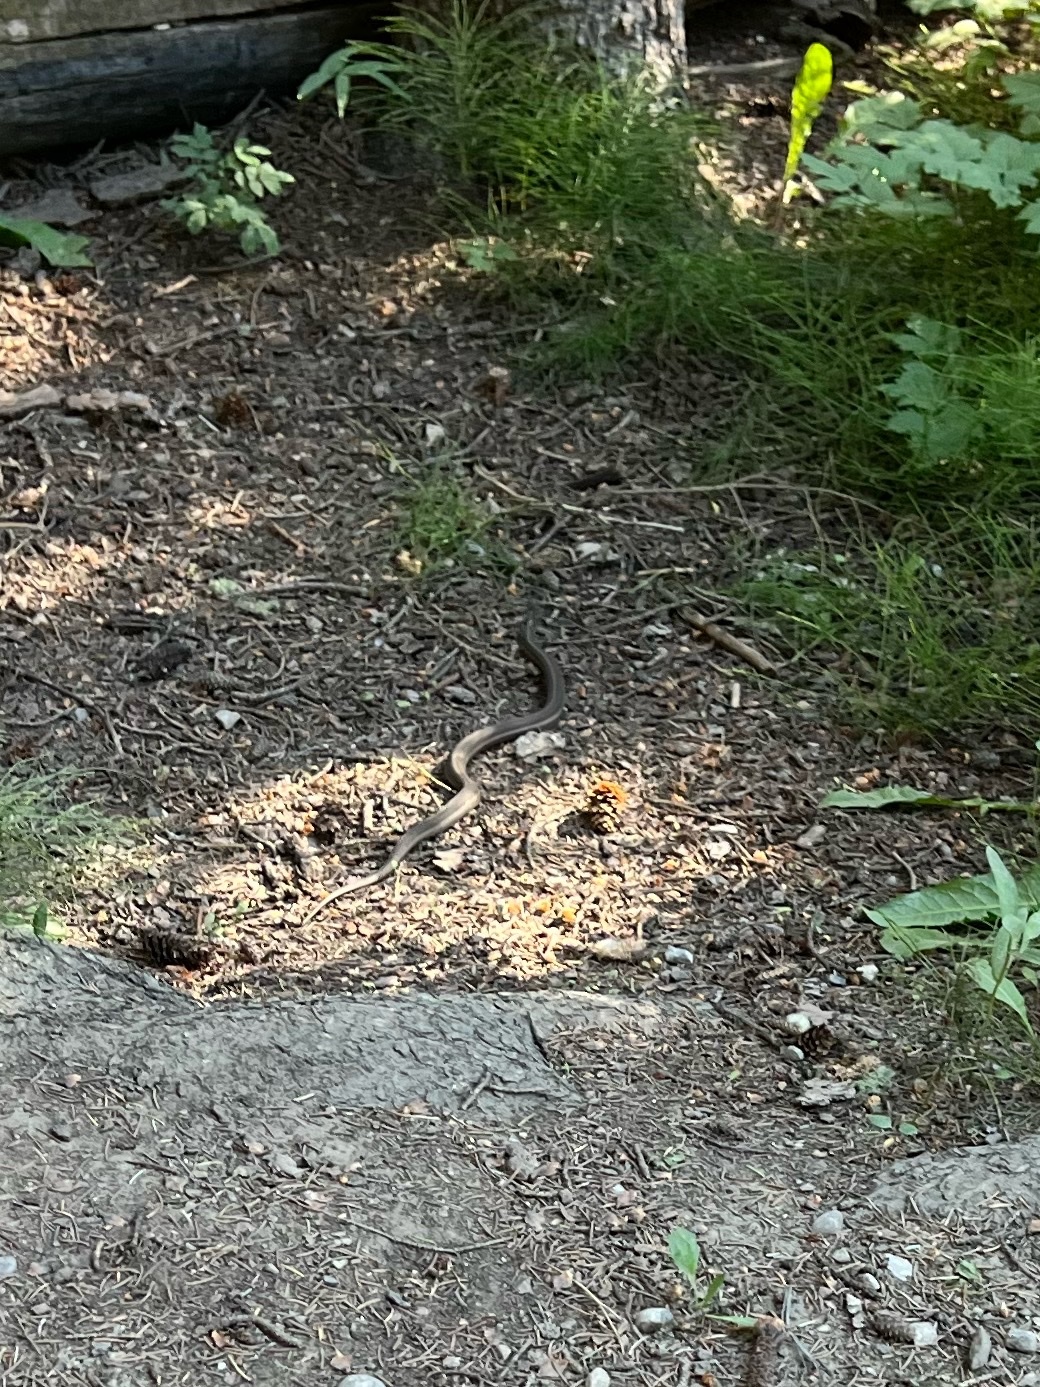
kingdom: Animalia
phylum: Chordata
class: Squamata
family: Colubridae
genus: Thamnophis
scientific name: Thamnophis elegans
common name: Western terrestrial garter snake
